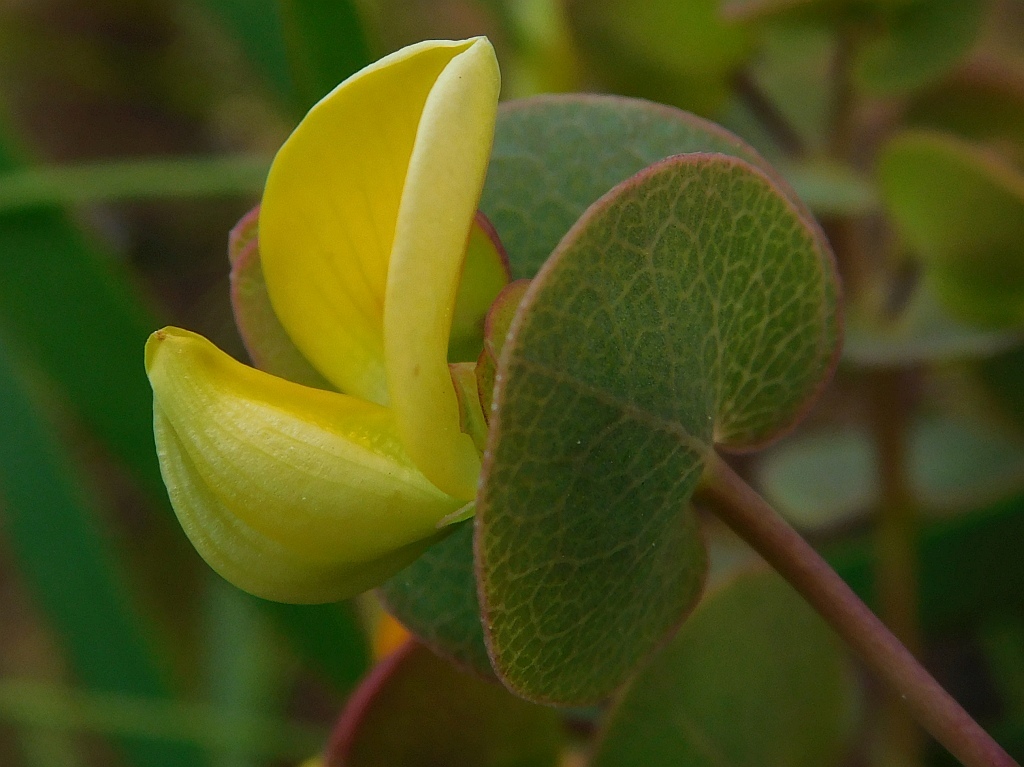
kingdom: Plantae
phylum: Tracheophyta
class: Magnoliopsida
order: Fabales
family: Fabaceae
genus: Rafnia
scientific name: Rafnia acuminata
